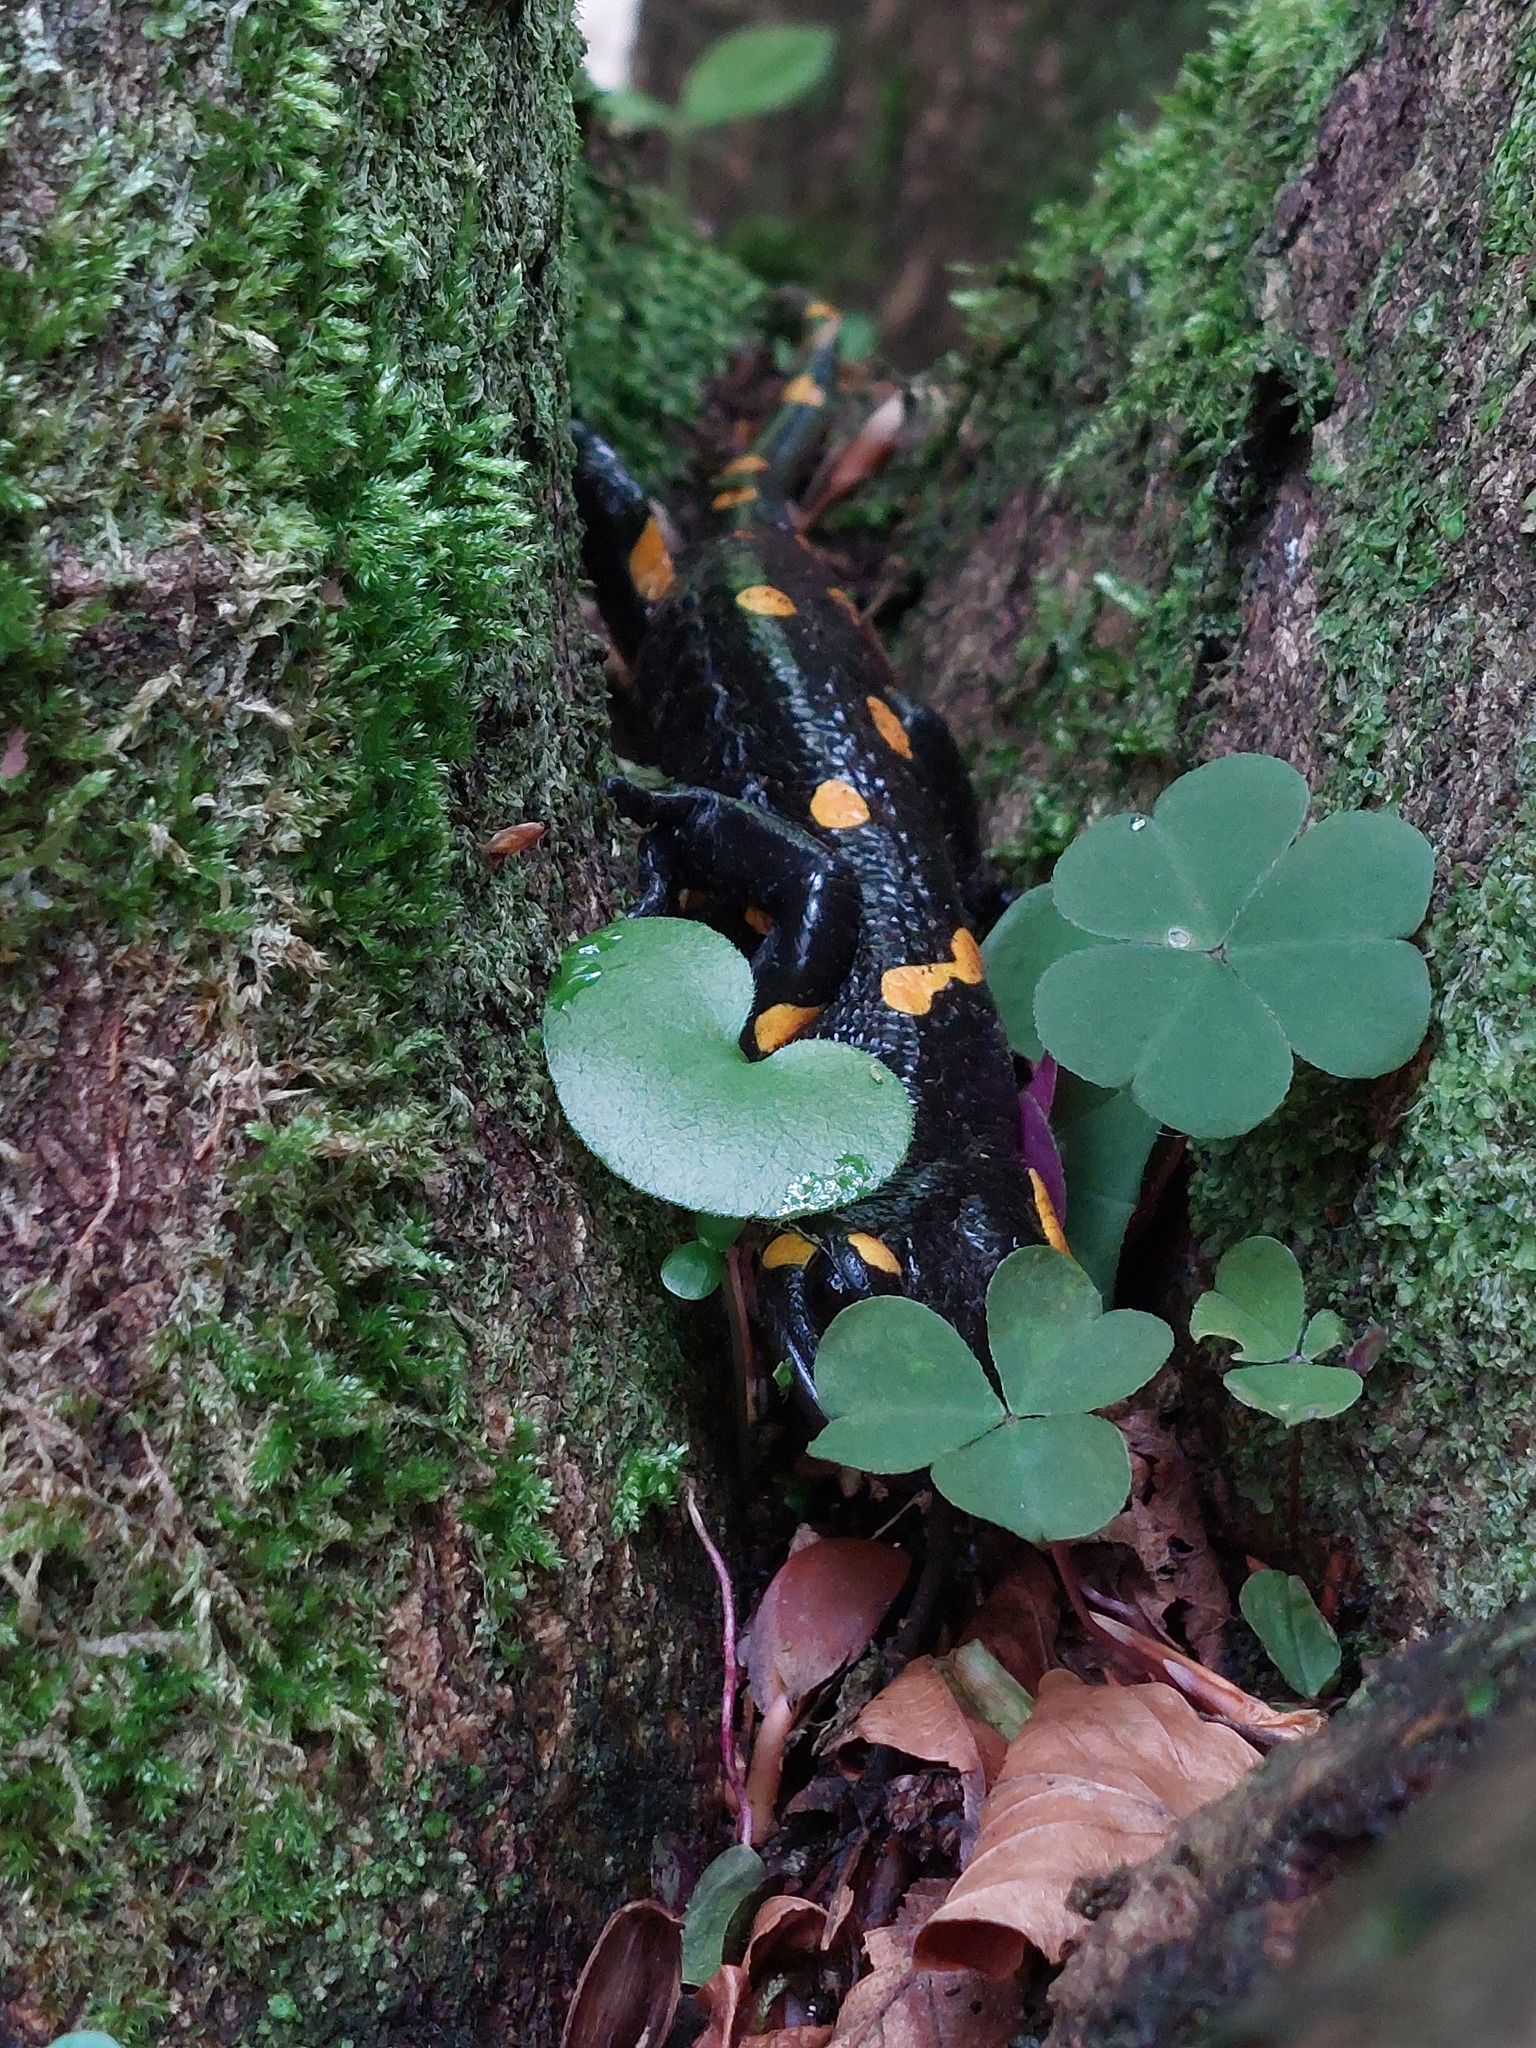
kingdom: Animalia
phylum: Chordata
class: Amphibia
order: Caudata
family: Salamandridae
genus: Salamandra
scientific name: Salamandra salamandra
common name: Fire salamander
